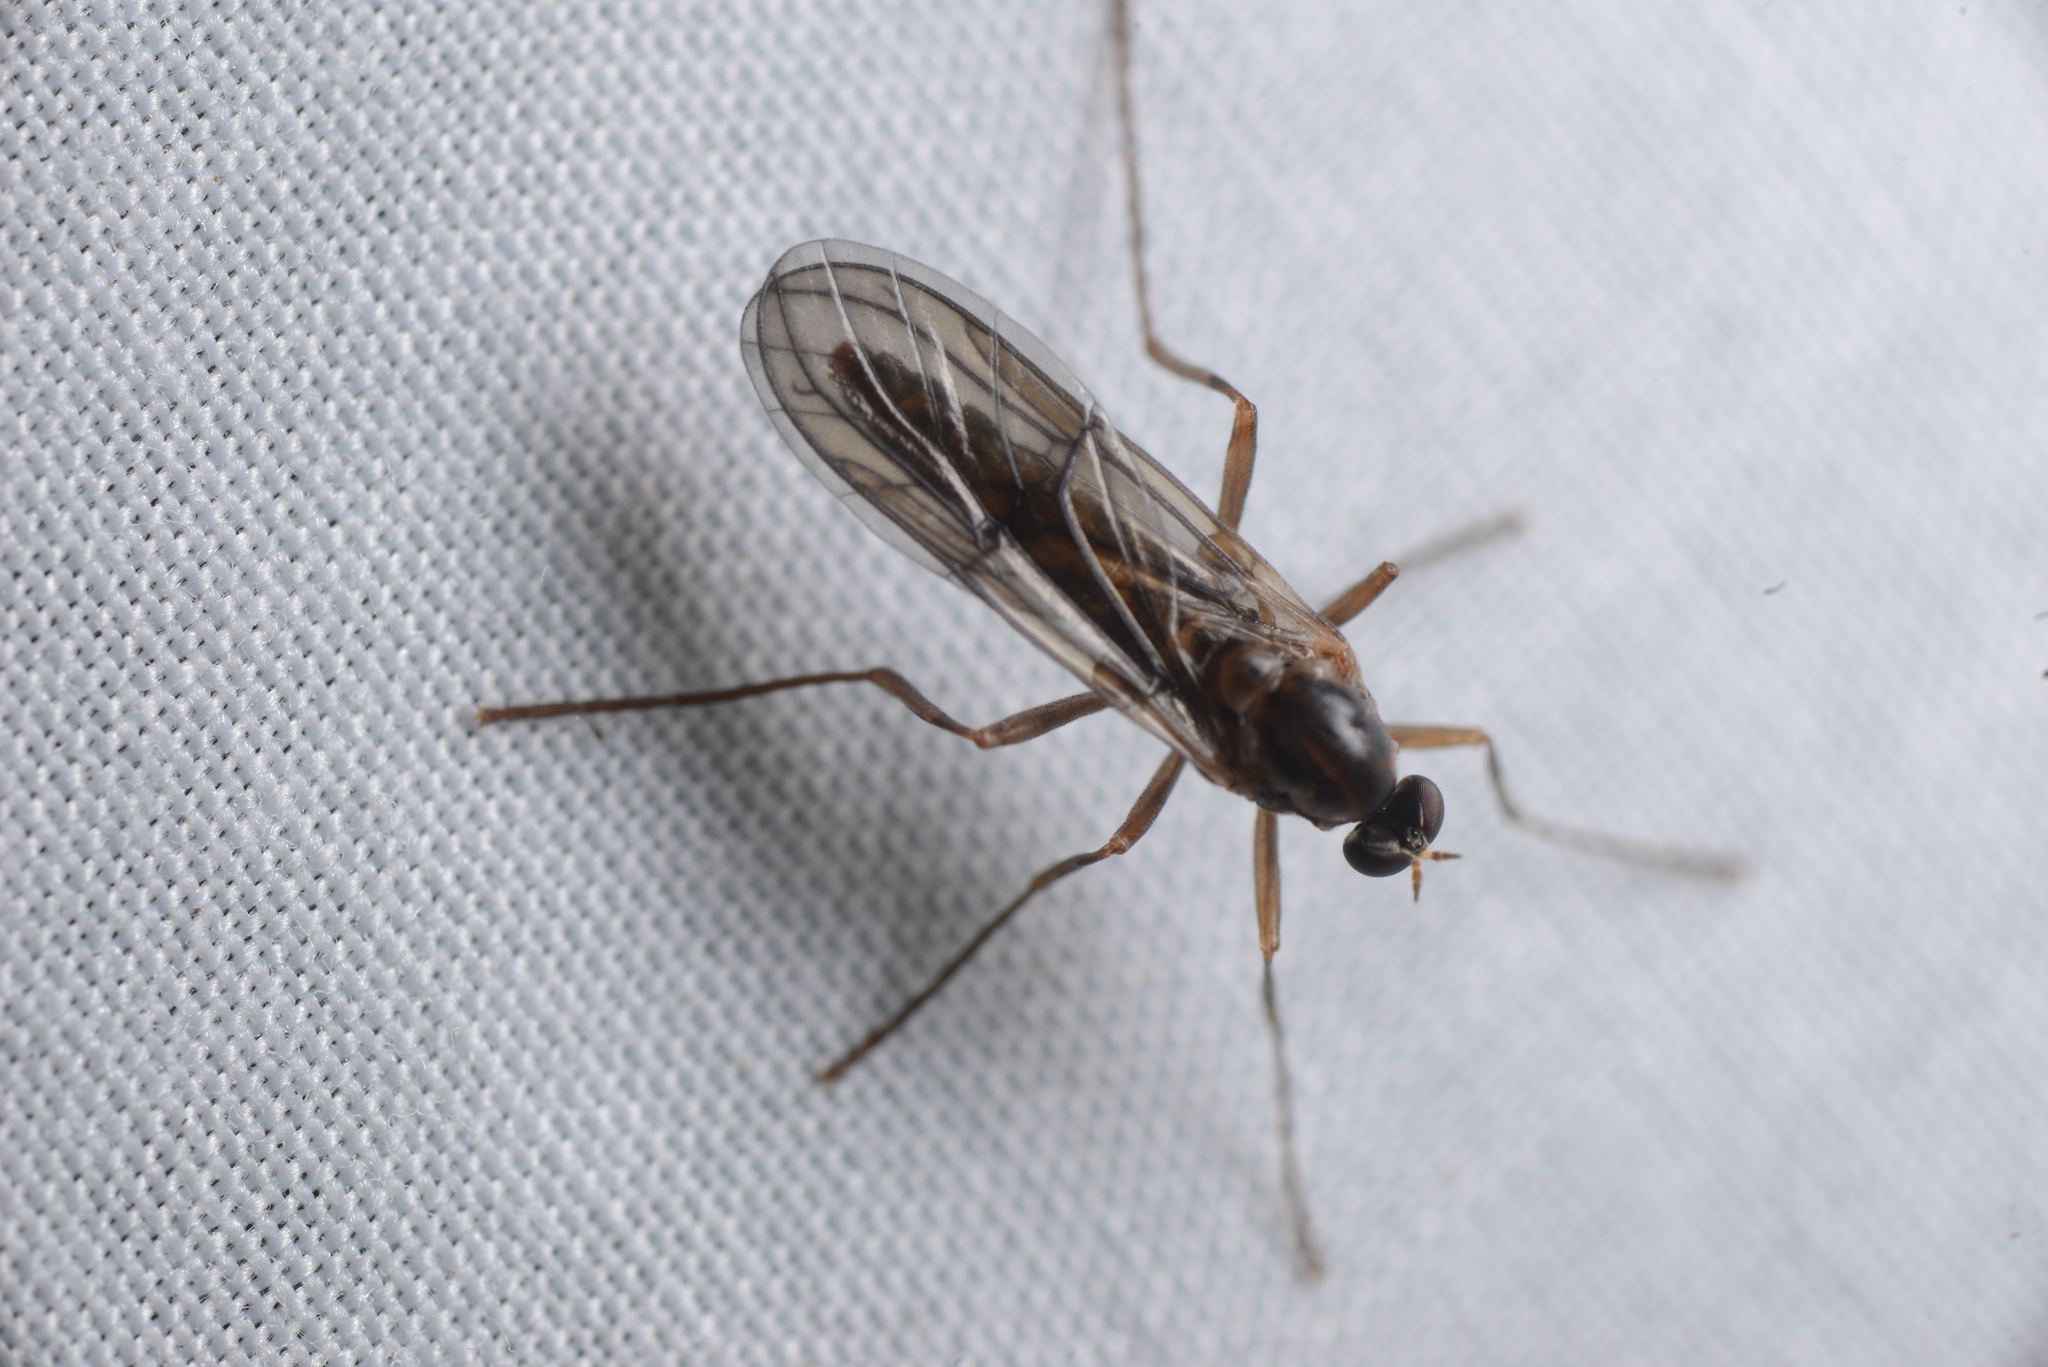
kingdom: Animalia
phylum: Arthropoda
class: Insecta
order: Diptera
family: Stratiomyidae
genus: Boreoides
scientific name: Boreoides tasmaniensis
